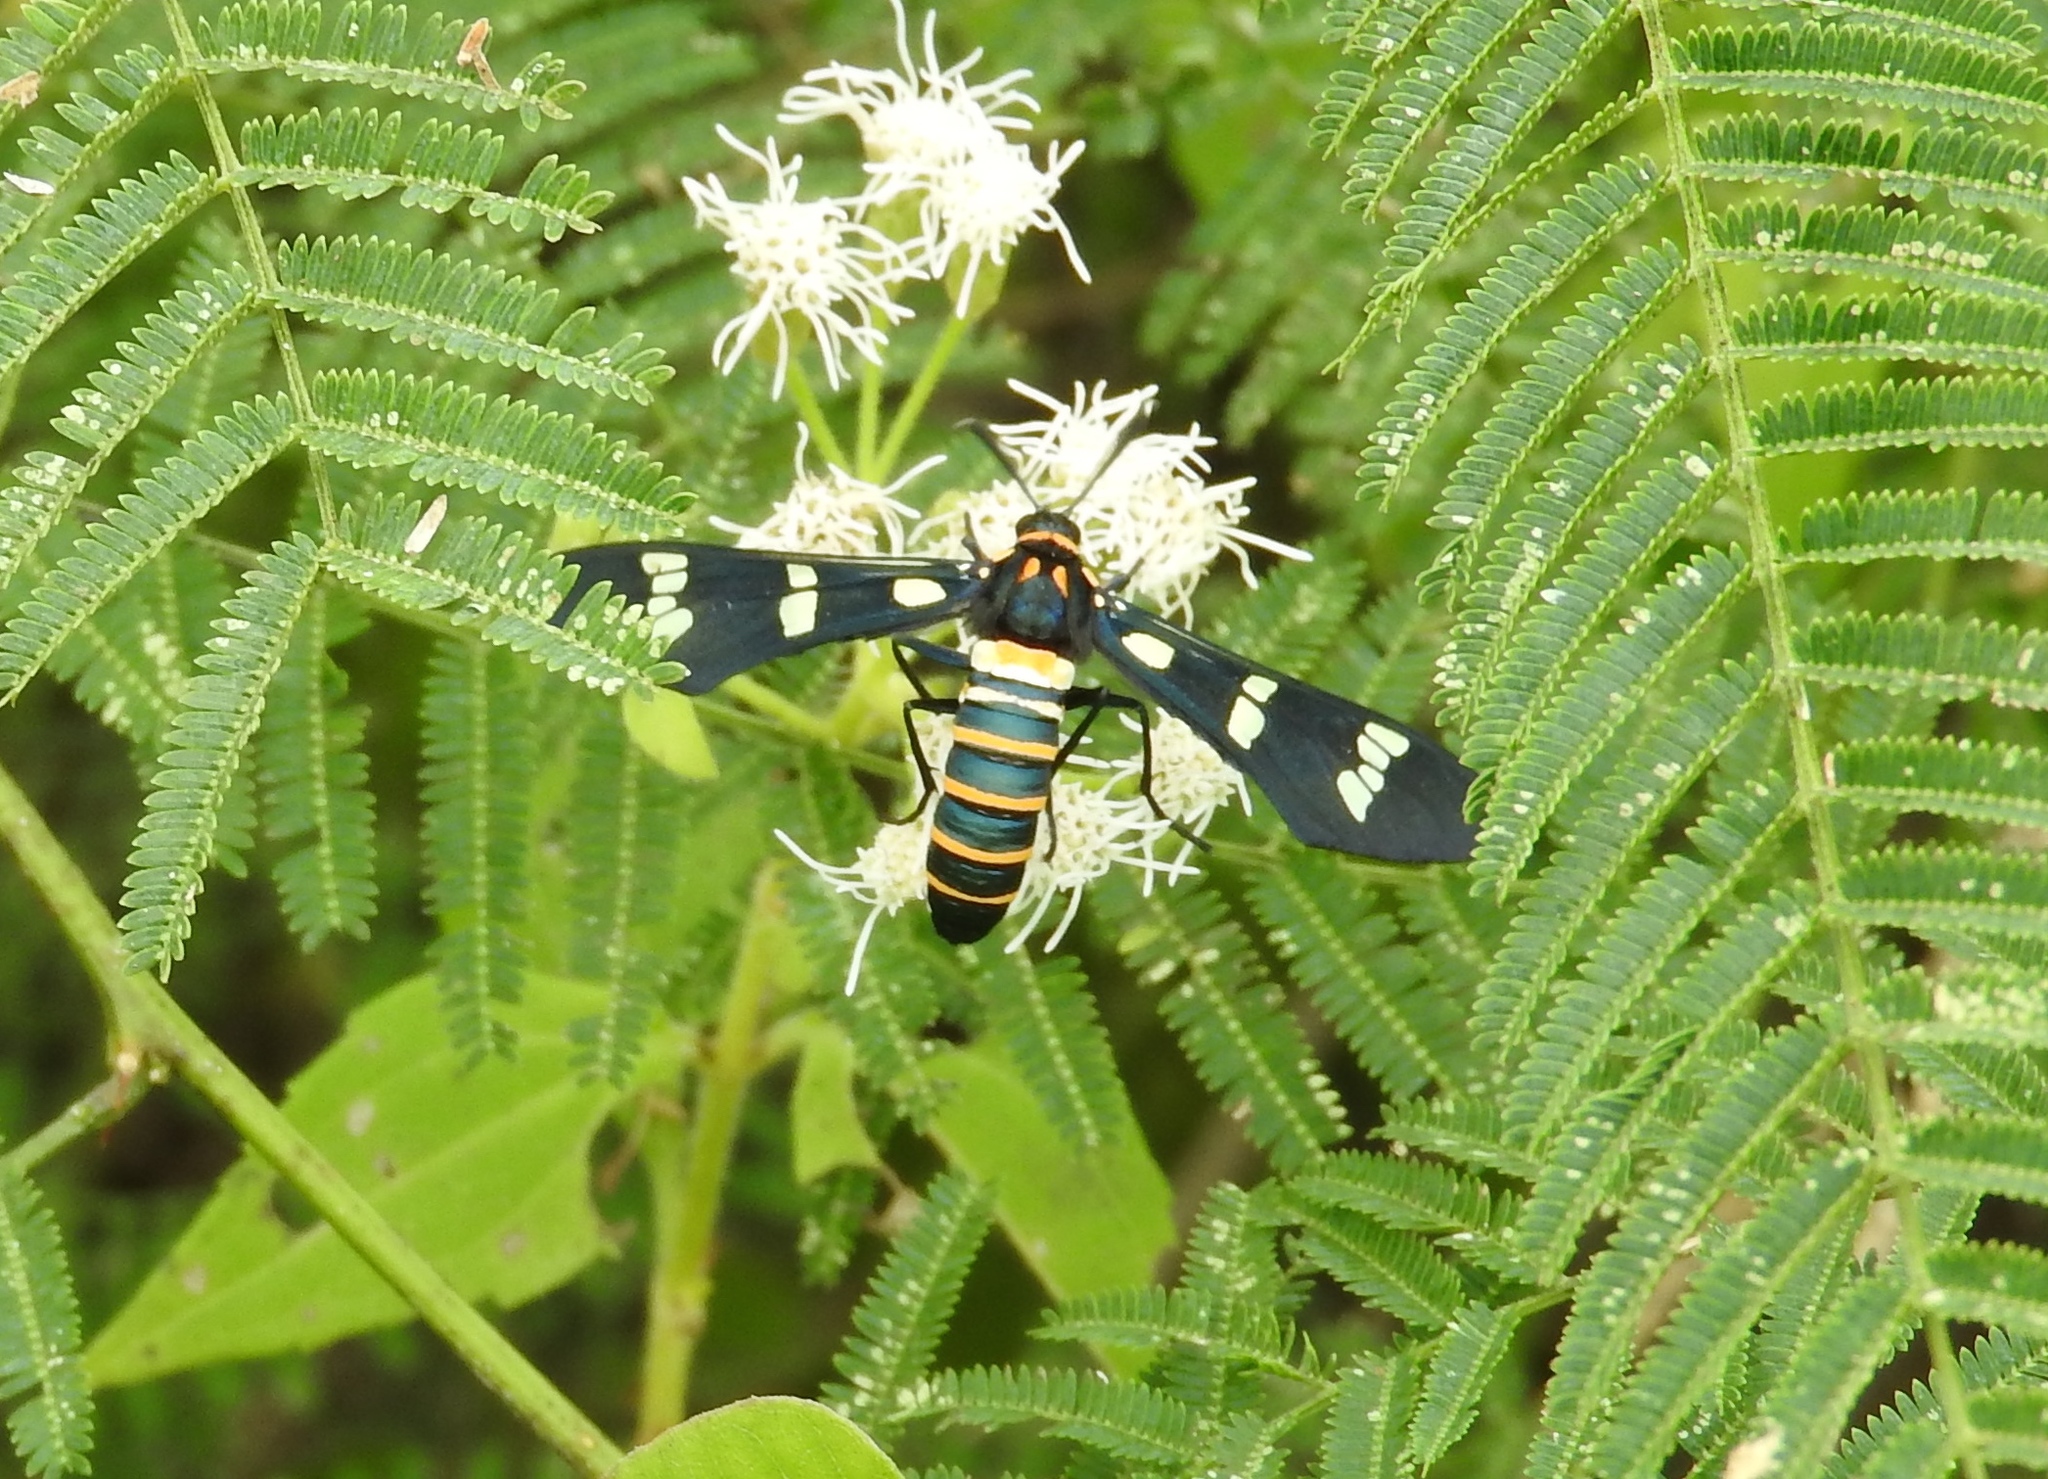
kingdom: Animalia
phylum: Arthropoda
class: Insecta
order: Lepidoptera
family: Erebidae
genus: Syntomeida
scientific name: Syntomeida melanthus
